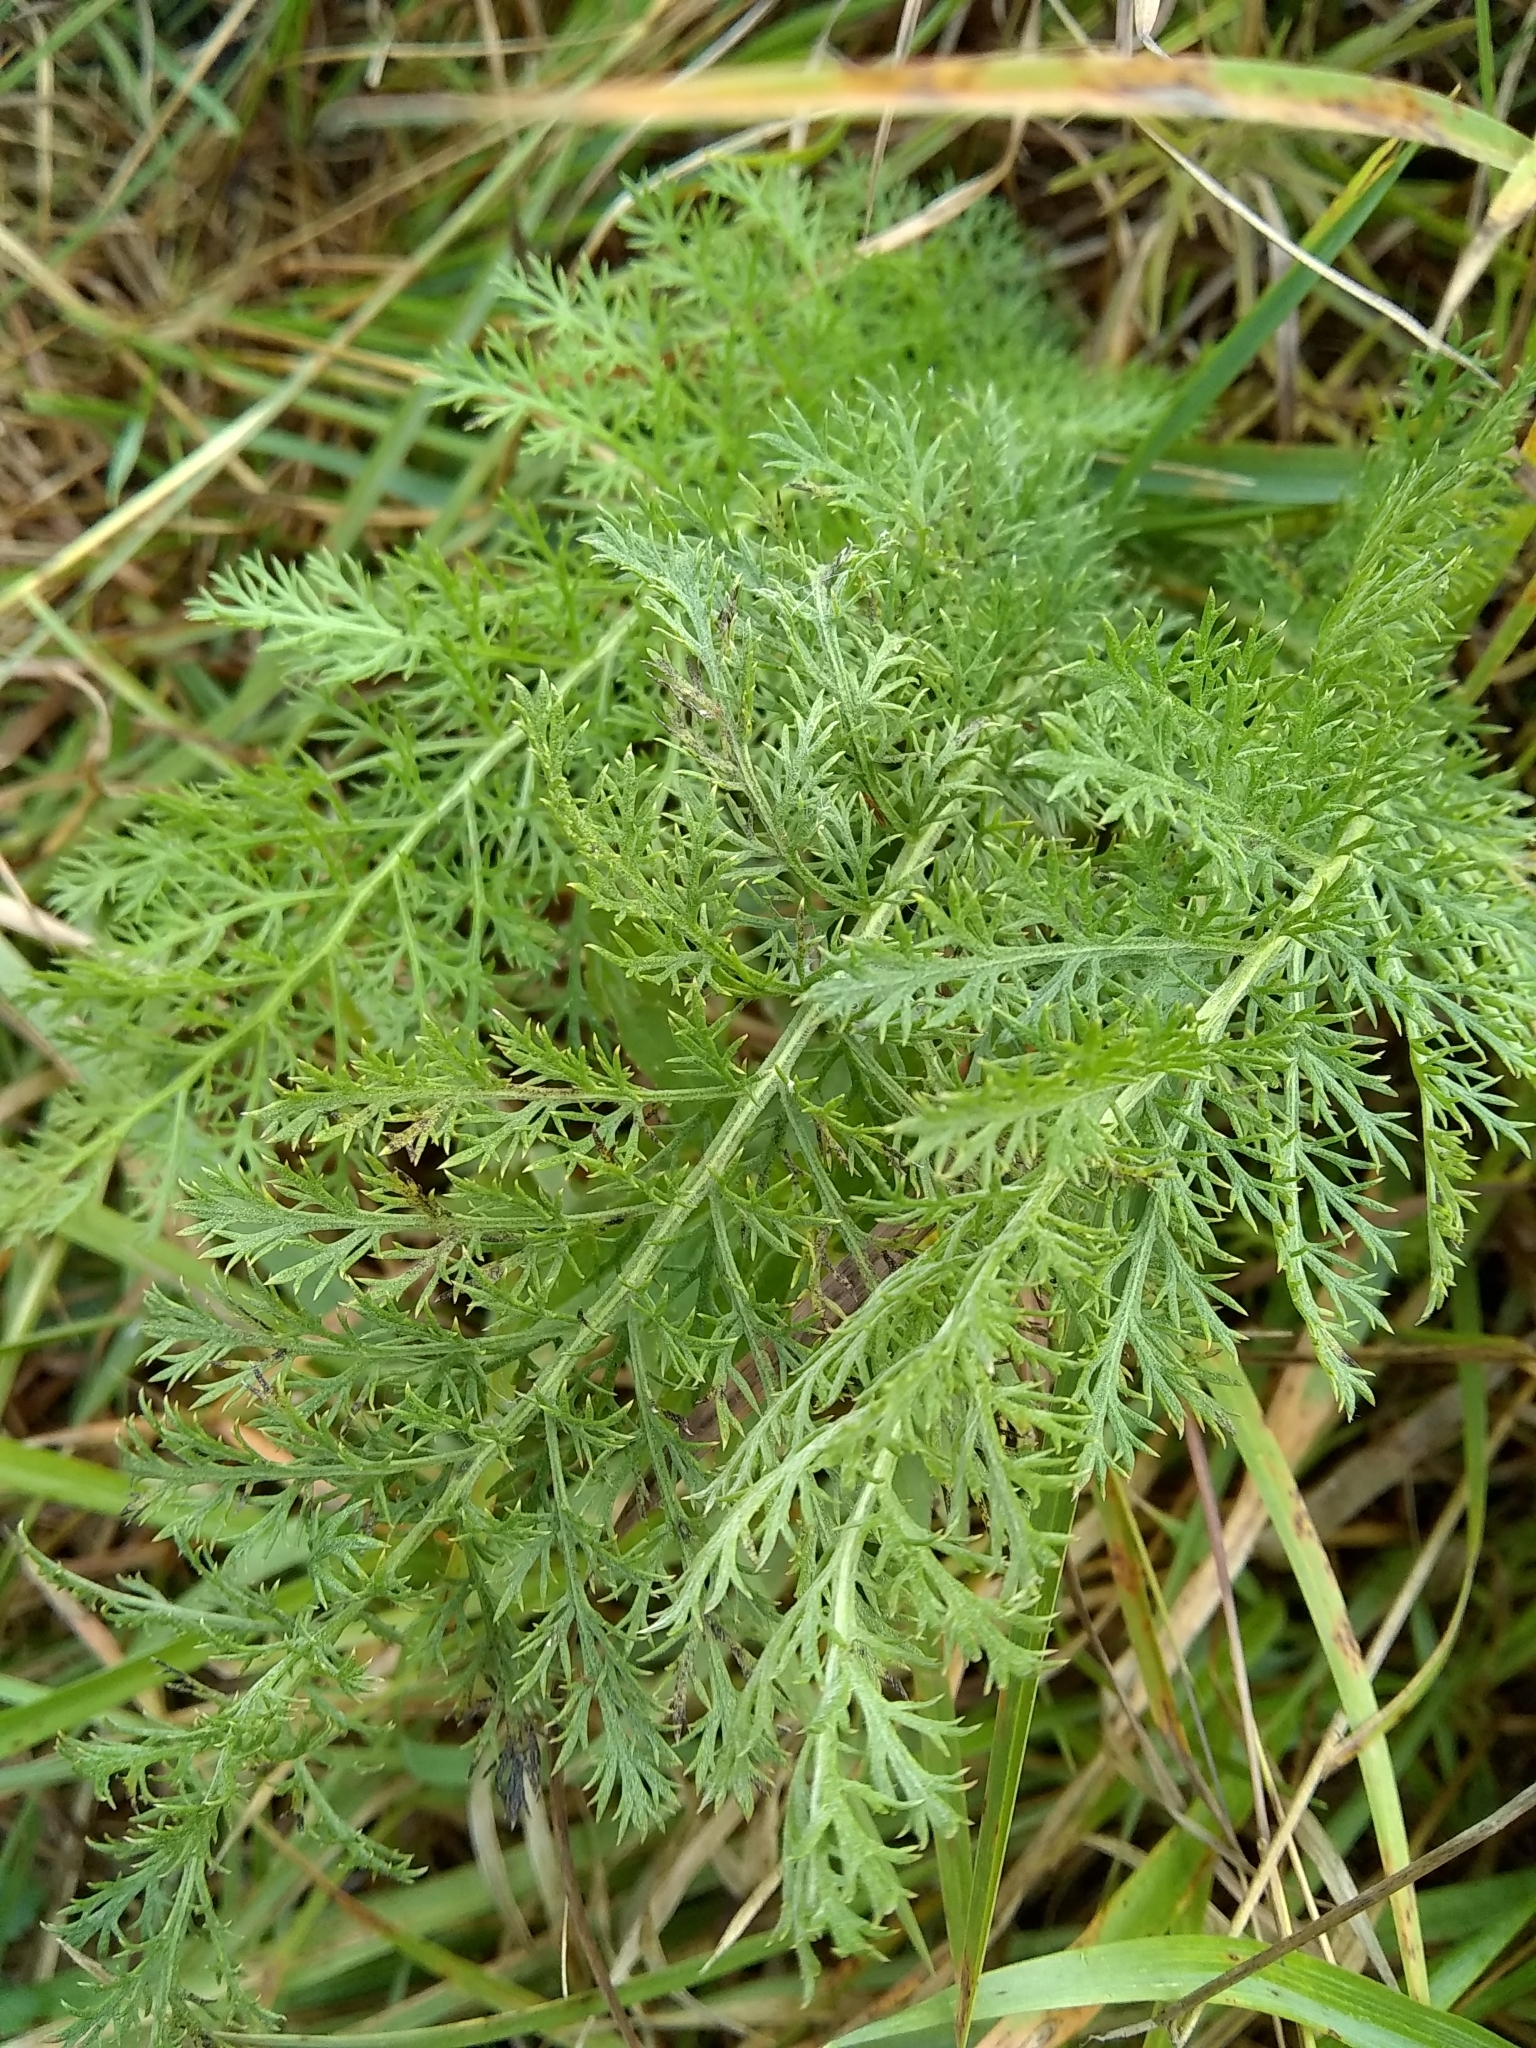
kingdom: Plantae
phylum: Tracheophyta
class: Magnoliopsida
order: Asterales
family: Asteraceae
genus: Achillea
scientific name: Achillea millefolium
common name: Yarrow
